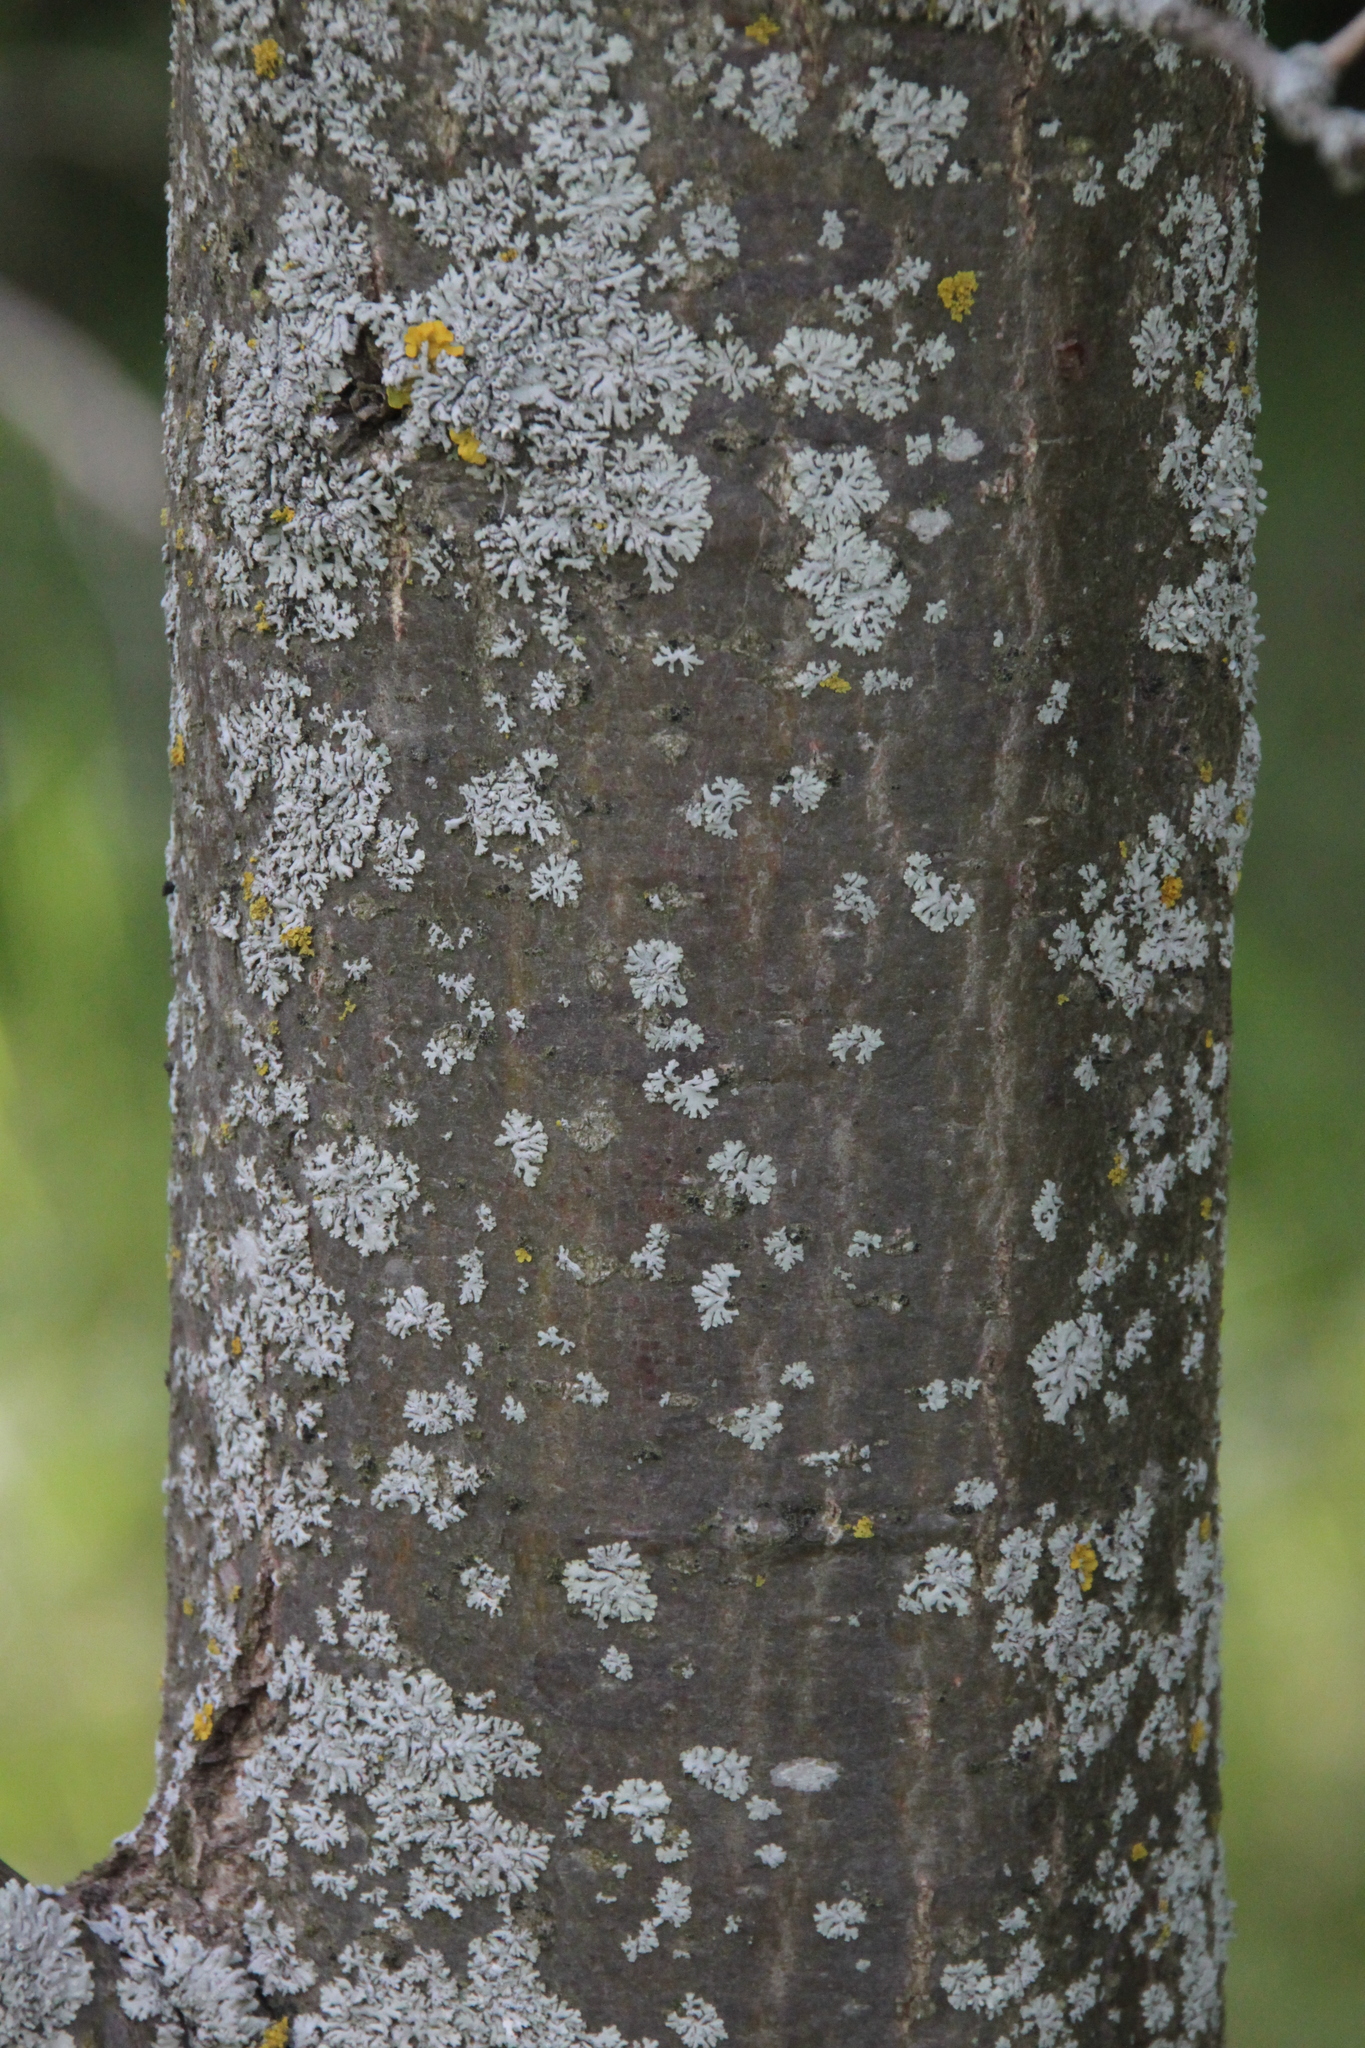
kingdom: Plantae
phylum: Tracheophyta
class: Magnoliopsida
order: Fagales
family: Fagaceae
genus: Quercus
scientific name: Quercus robur
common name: Pedunculate oak
